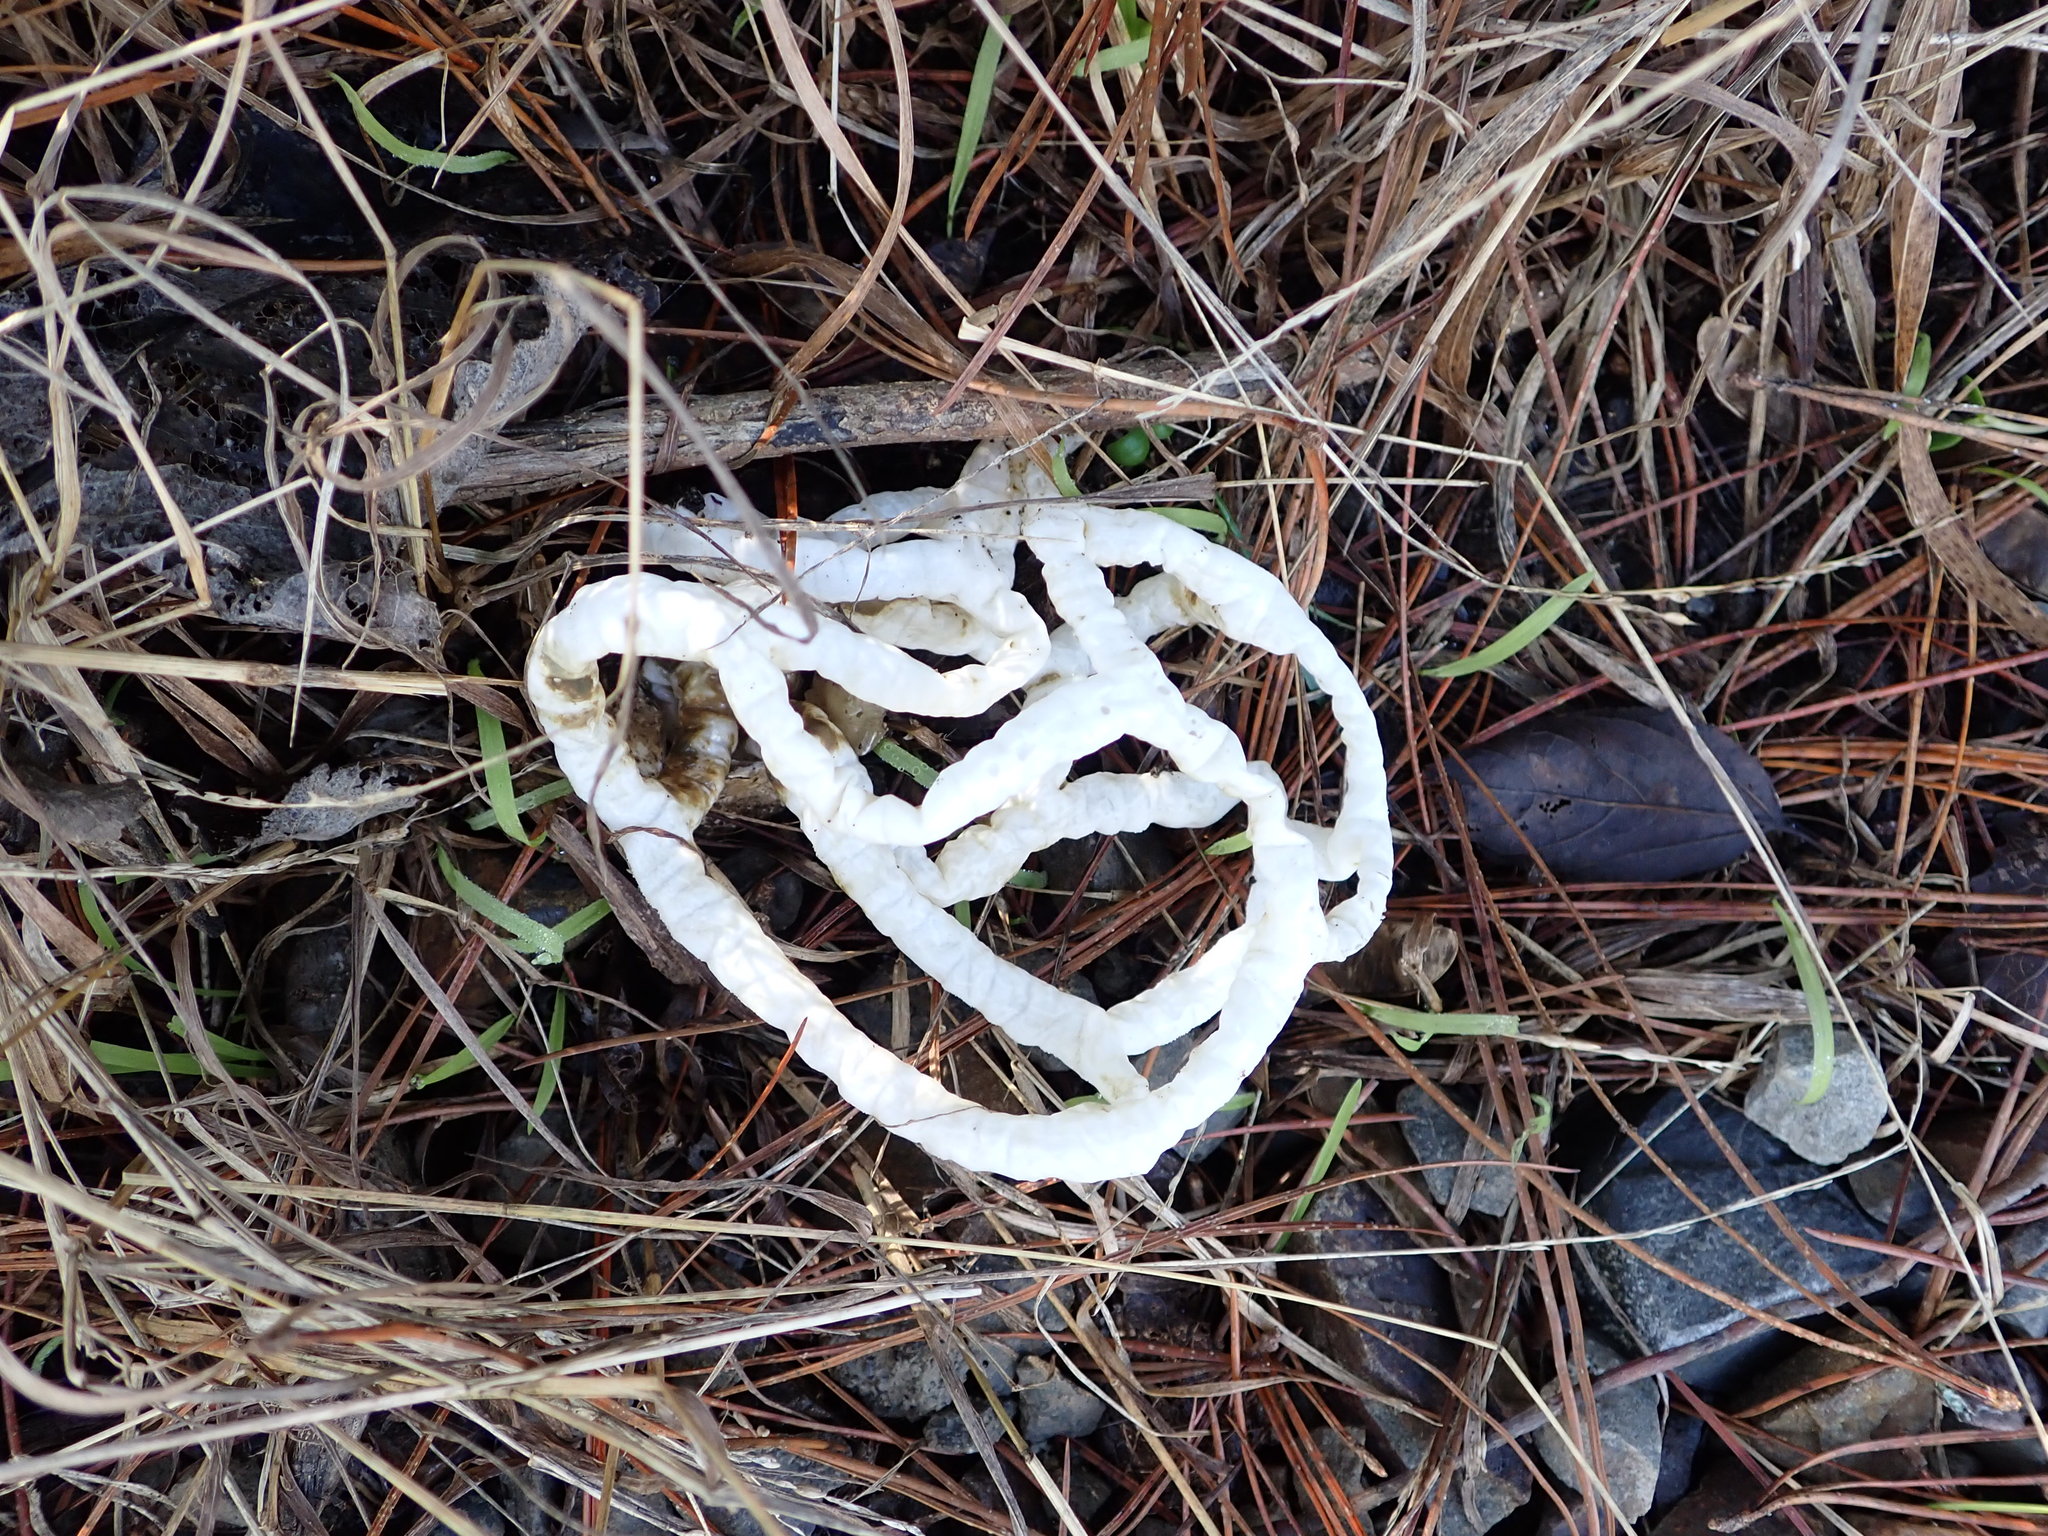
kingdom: Fungi
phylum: Basidiomycota
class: Agaricomycetes
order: Phallales
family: Phallaceae
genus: Ileodictyon
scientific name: Ileodictyon cibarium
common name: Basket fungus
